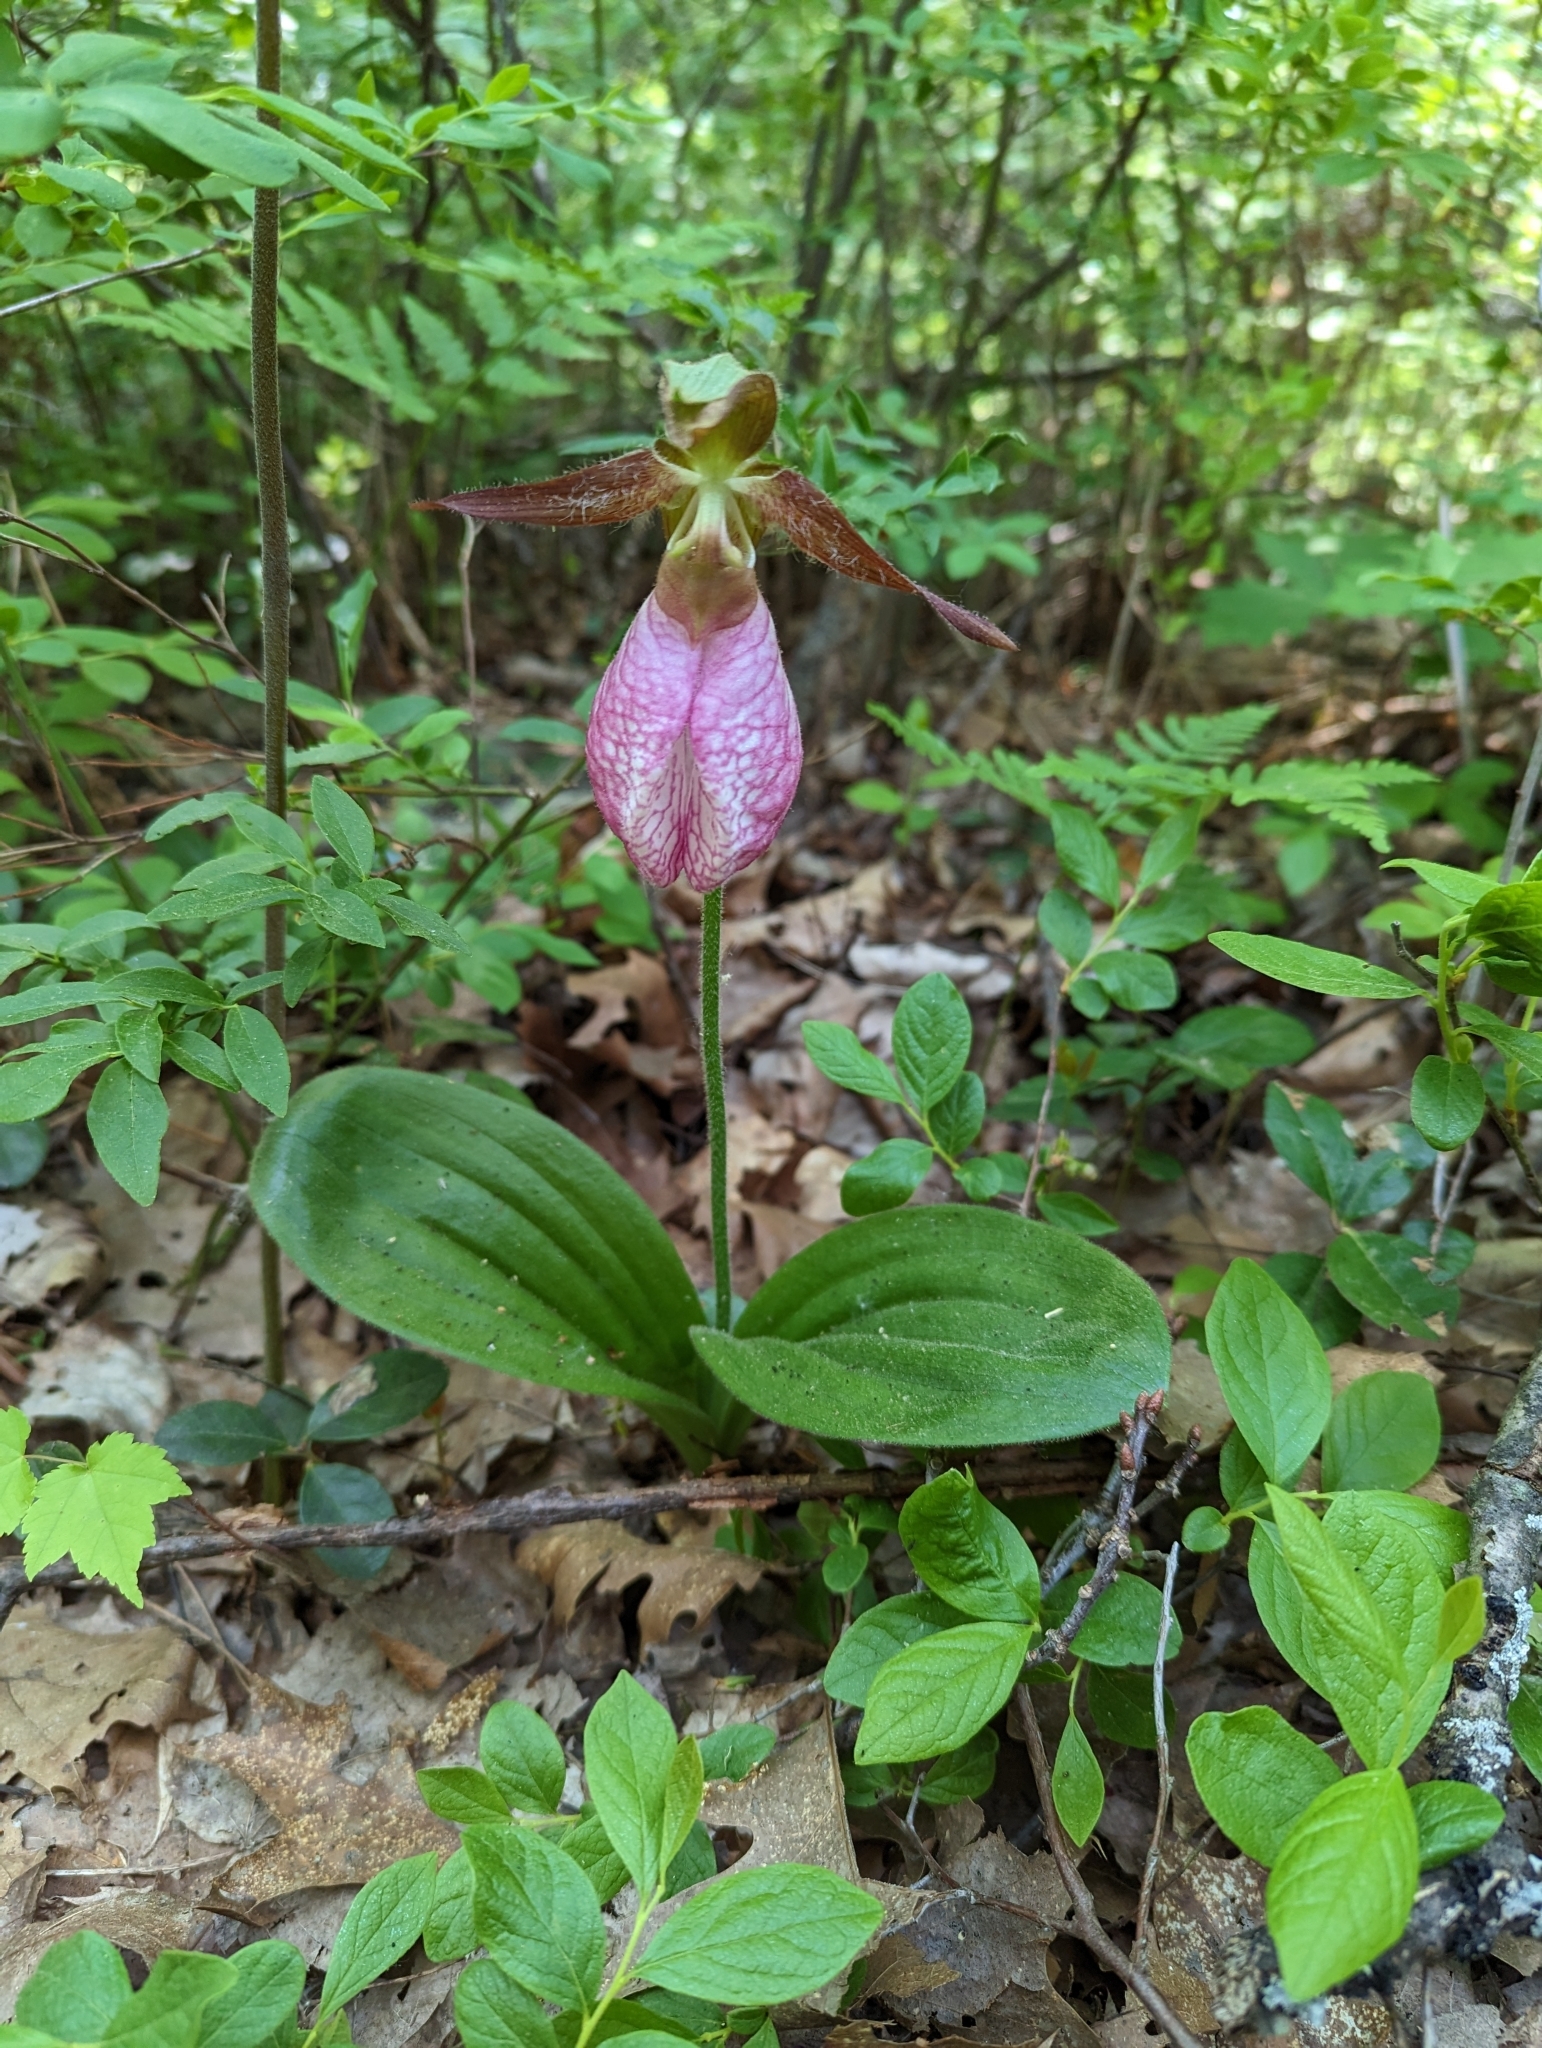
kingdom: Plantae
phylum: Tracheophyta
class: Liliopsida
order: Asparagales
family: Orchidaceae
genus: Cypripedium
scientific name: Cypripedium acaule
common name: Pink lady's-slipper
